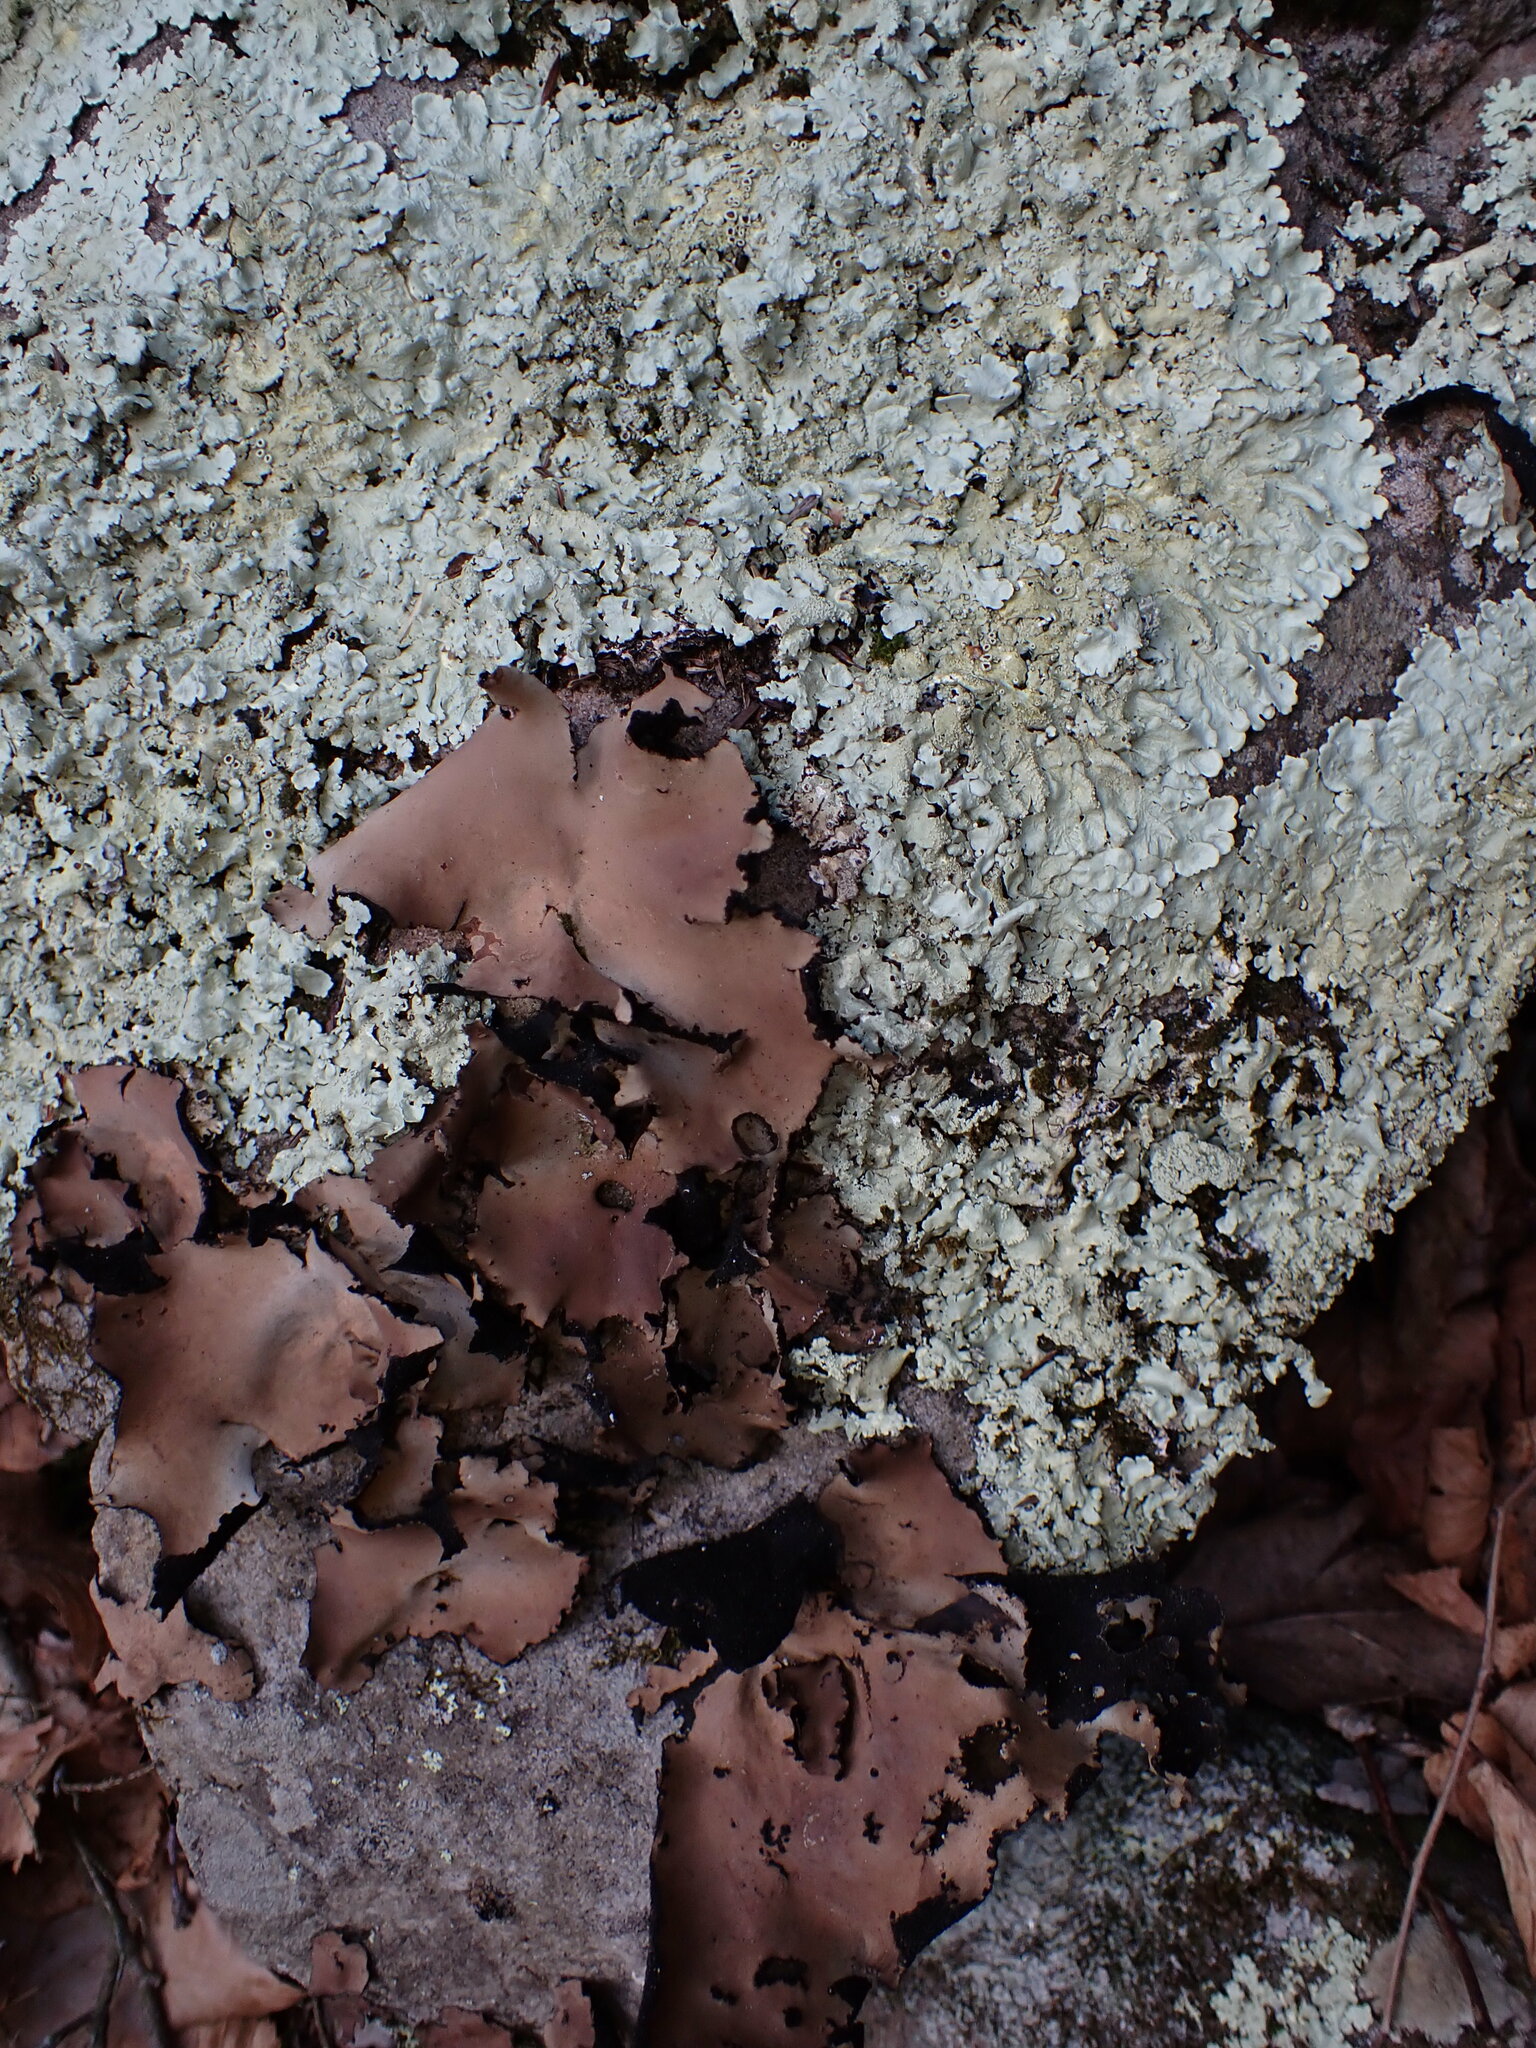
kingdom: Fungi
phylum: Ascomycota
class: Lecanoromycetes
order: Umbilicariales
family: Umbilicariaceae
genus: Umbilicaria
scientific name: Umbilicaria mammulata
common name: Smooth rock tripe
